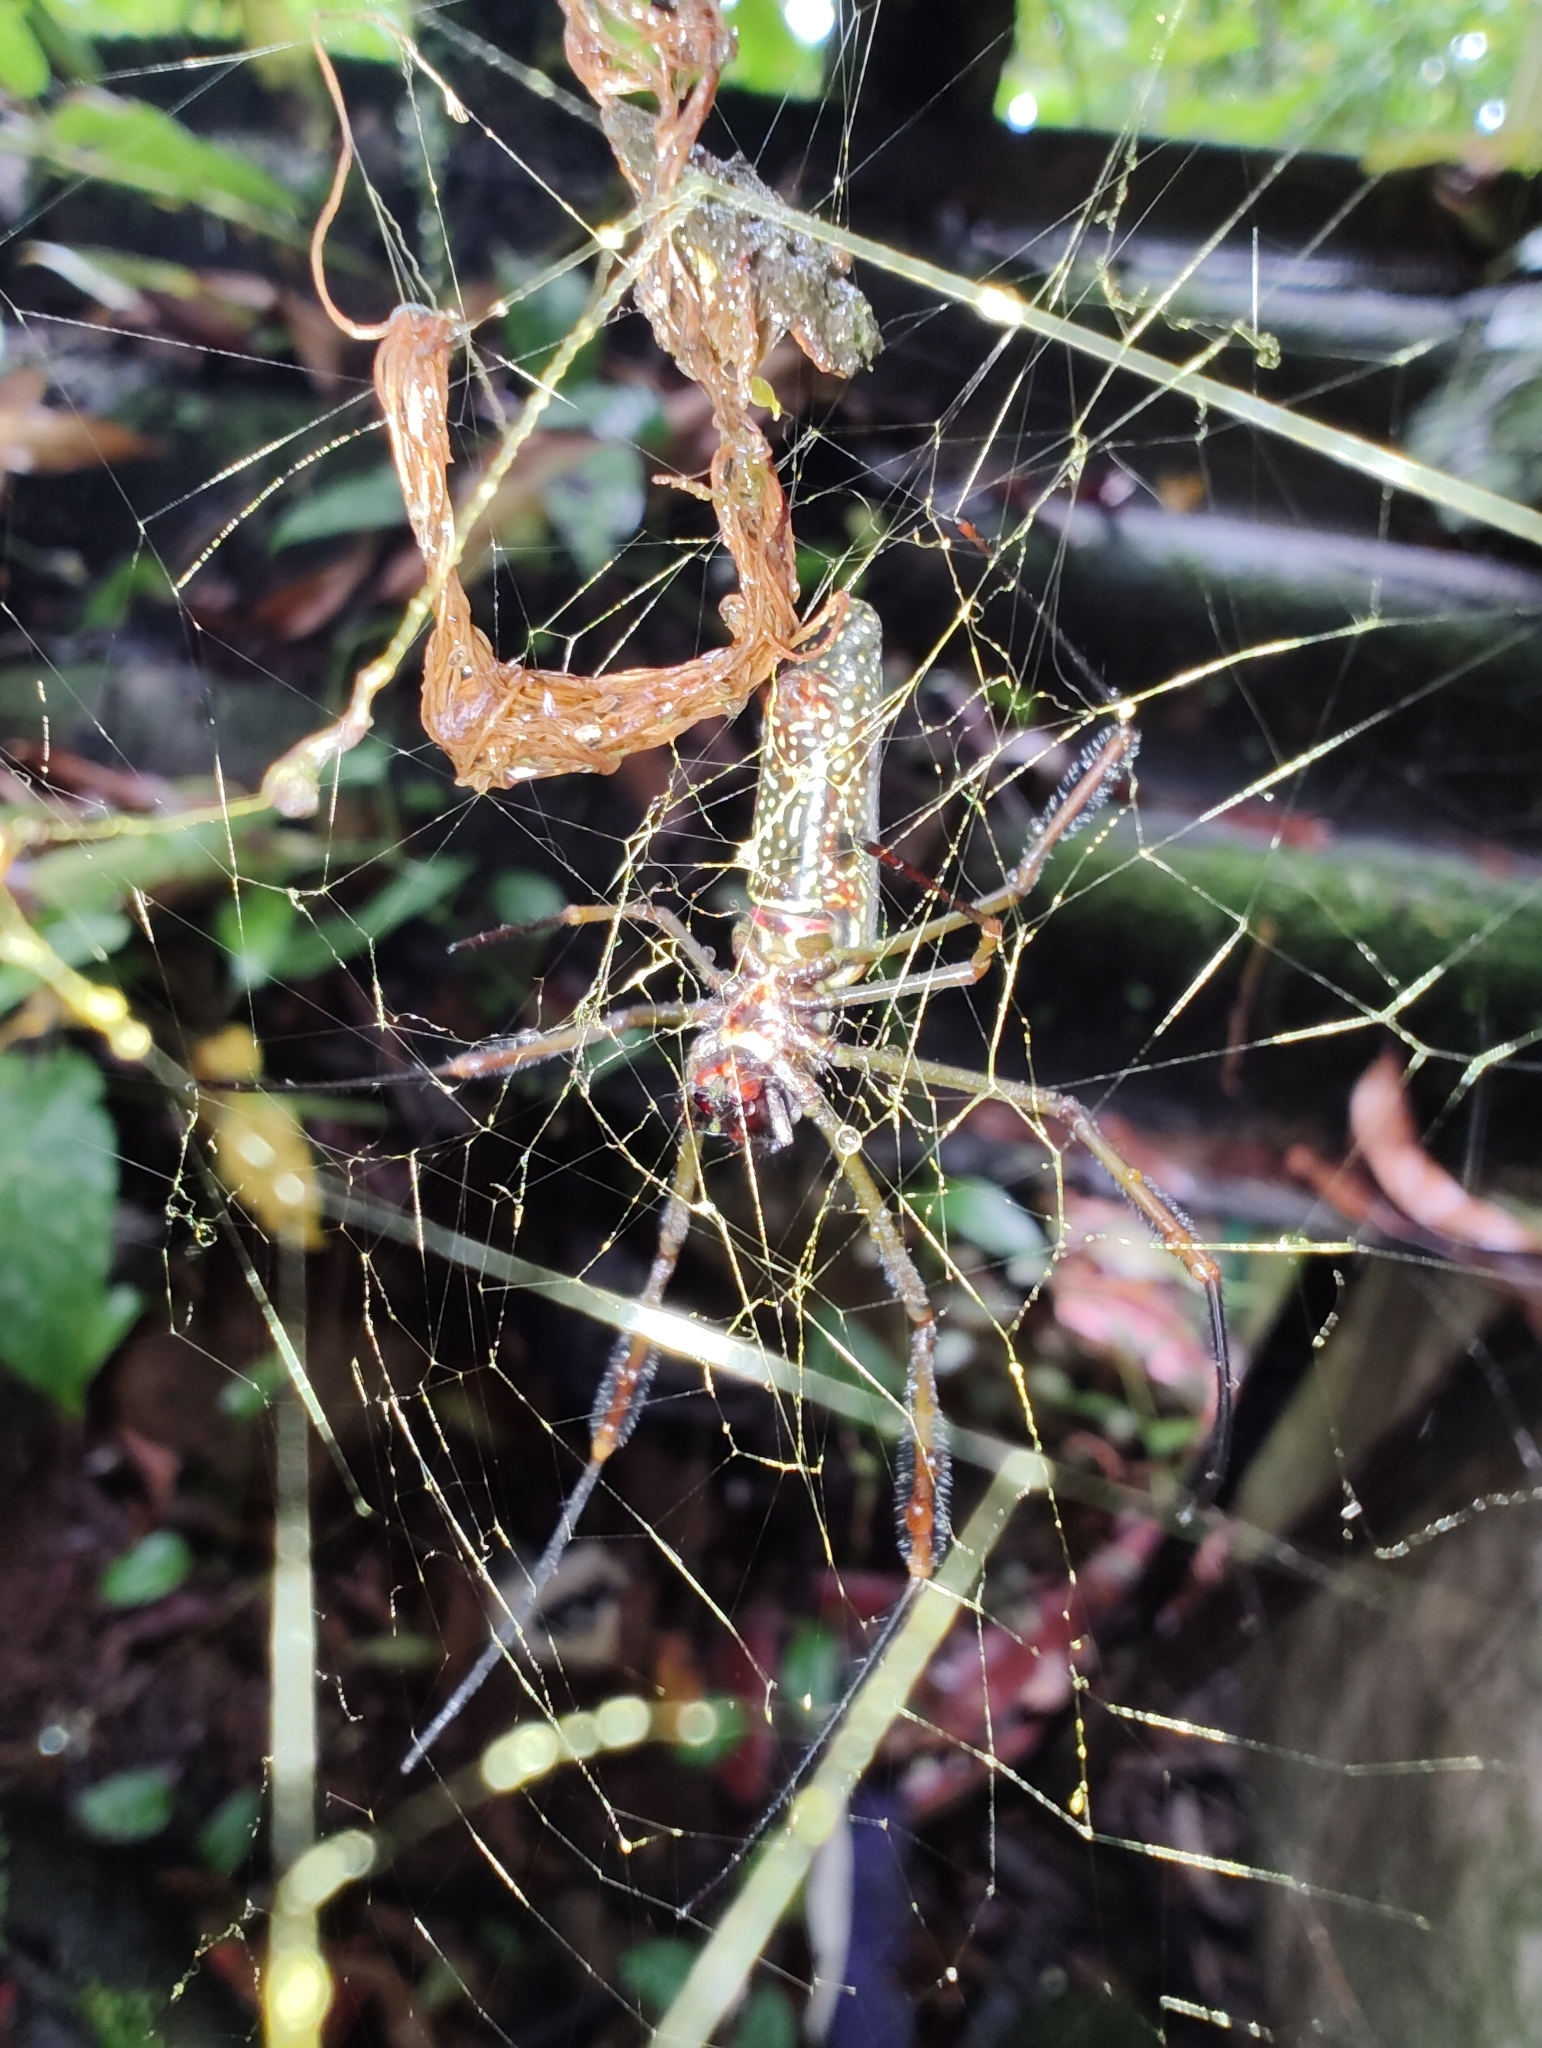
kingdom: Animalia
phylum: Arthropoda
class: Arachnida
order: Araneae
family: Araneidae
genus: Trichonephila
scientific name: Trichonephila clavipes
